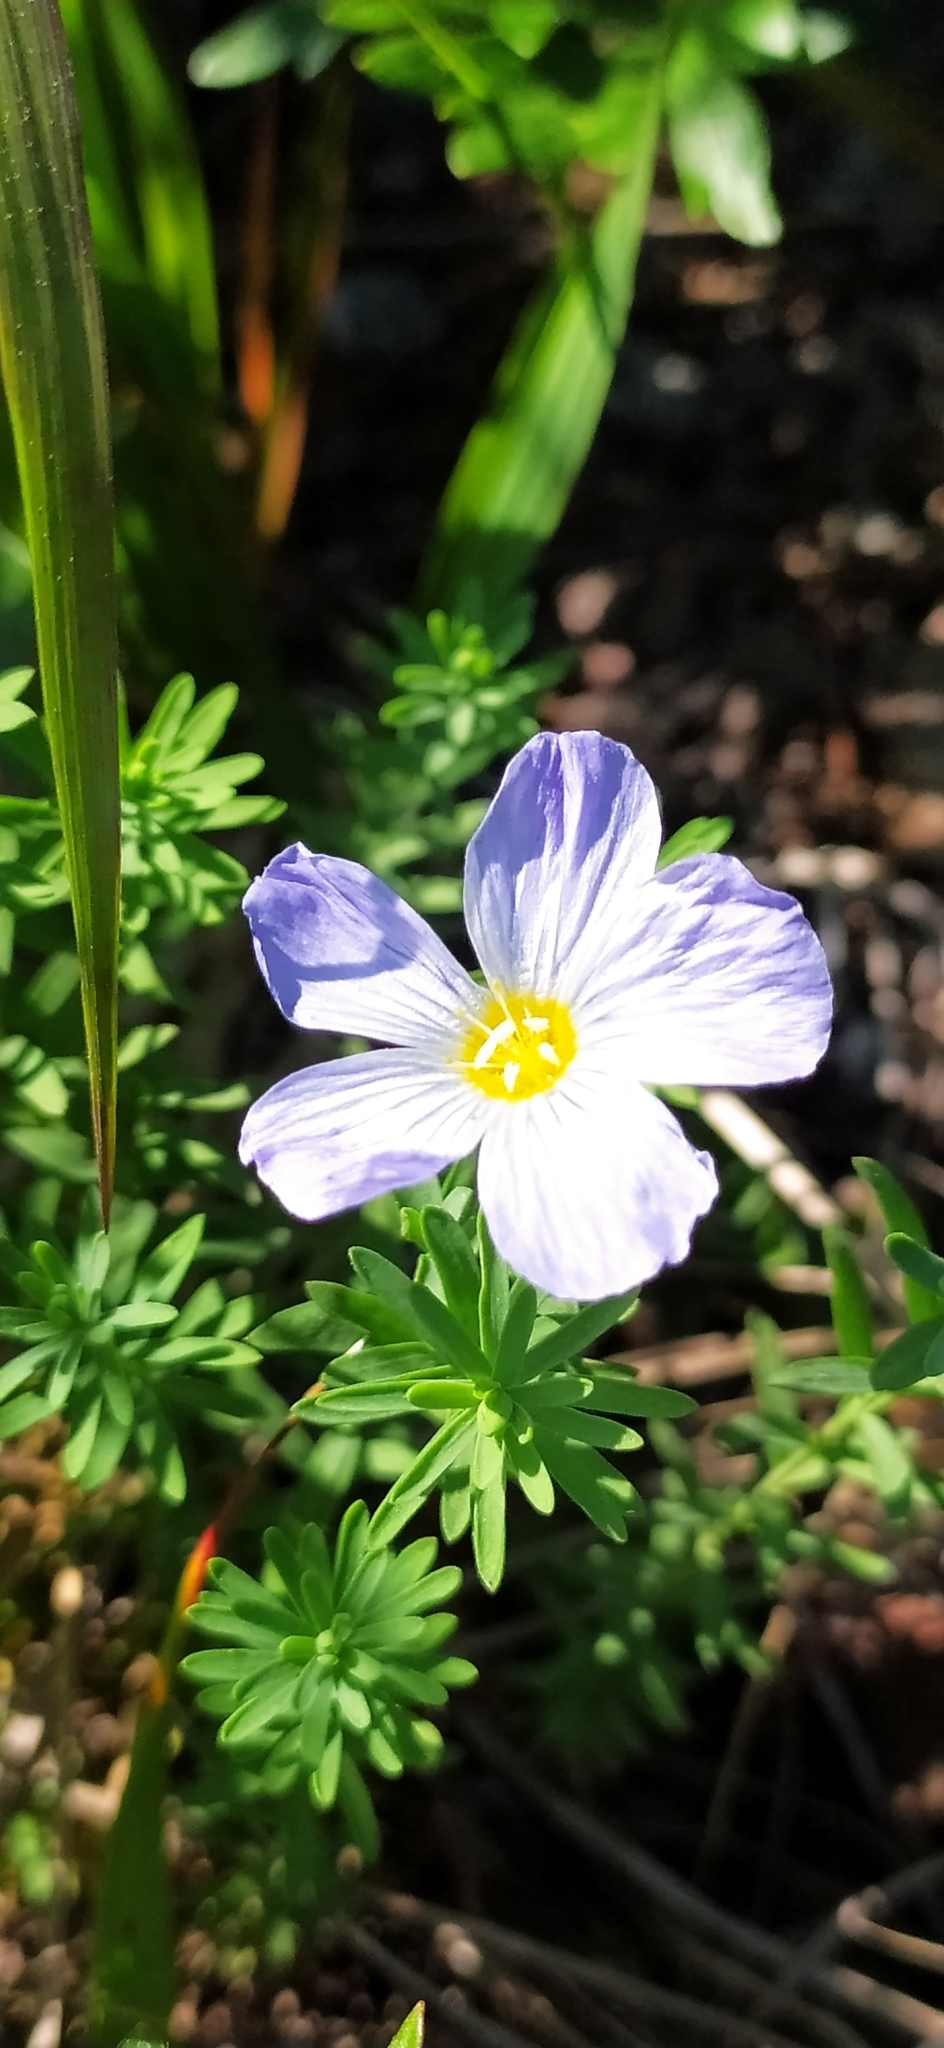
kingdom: Plantae
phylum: Tracheophyta
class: Magnoliopsida
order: Malpighiales
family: Linaceae
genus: Linum
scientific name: Linum komarovii
